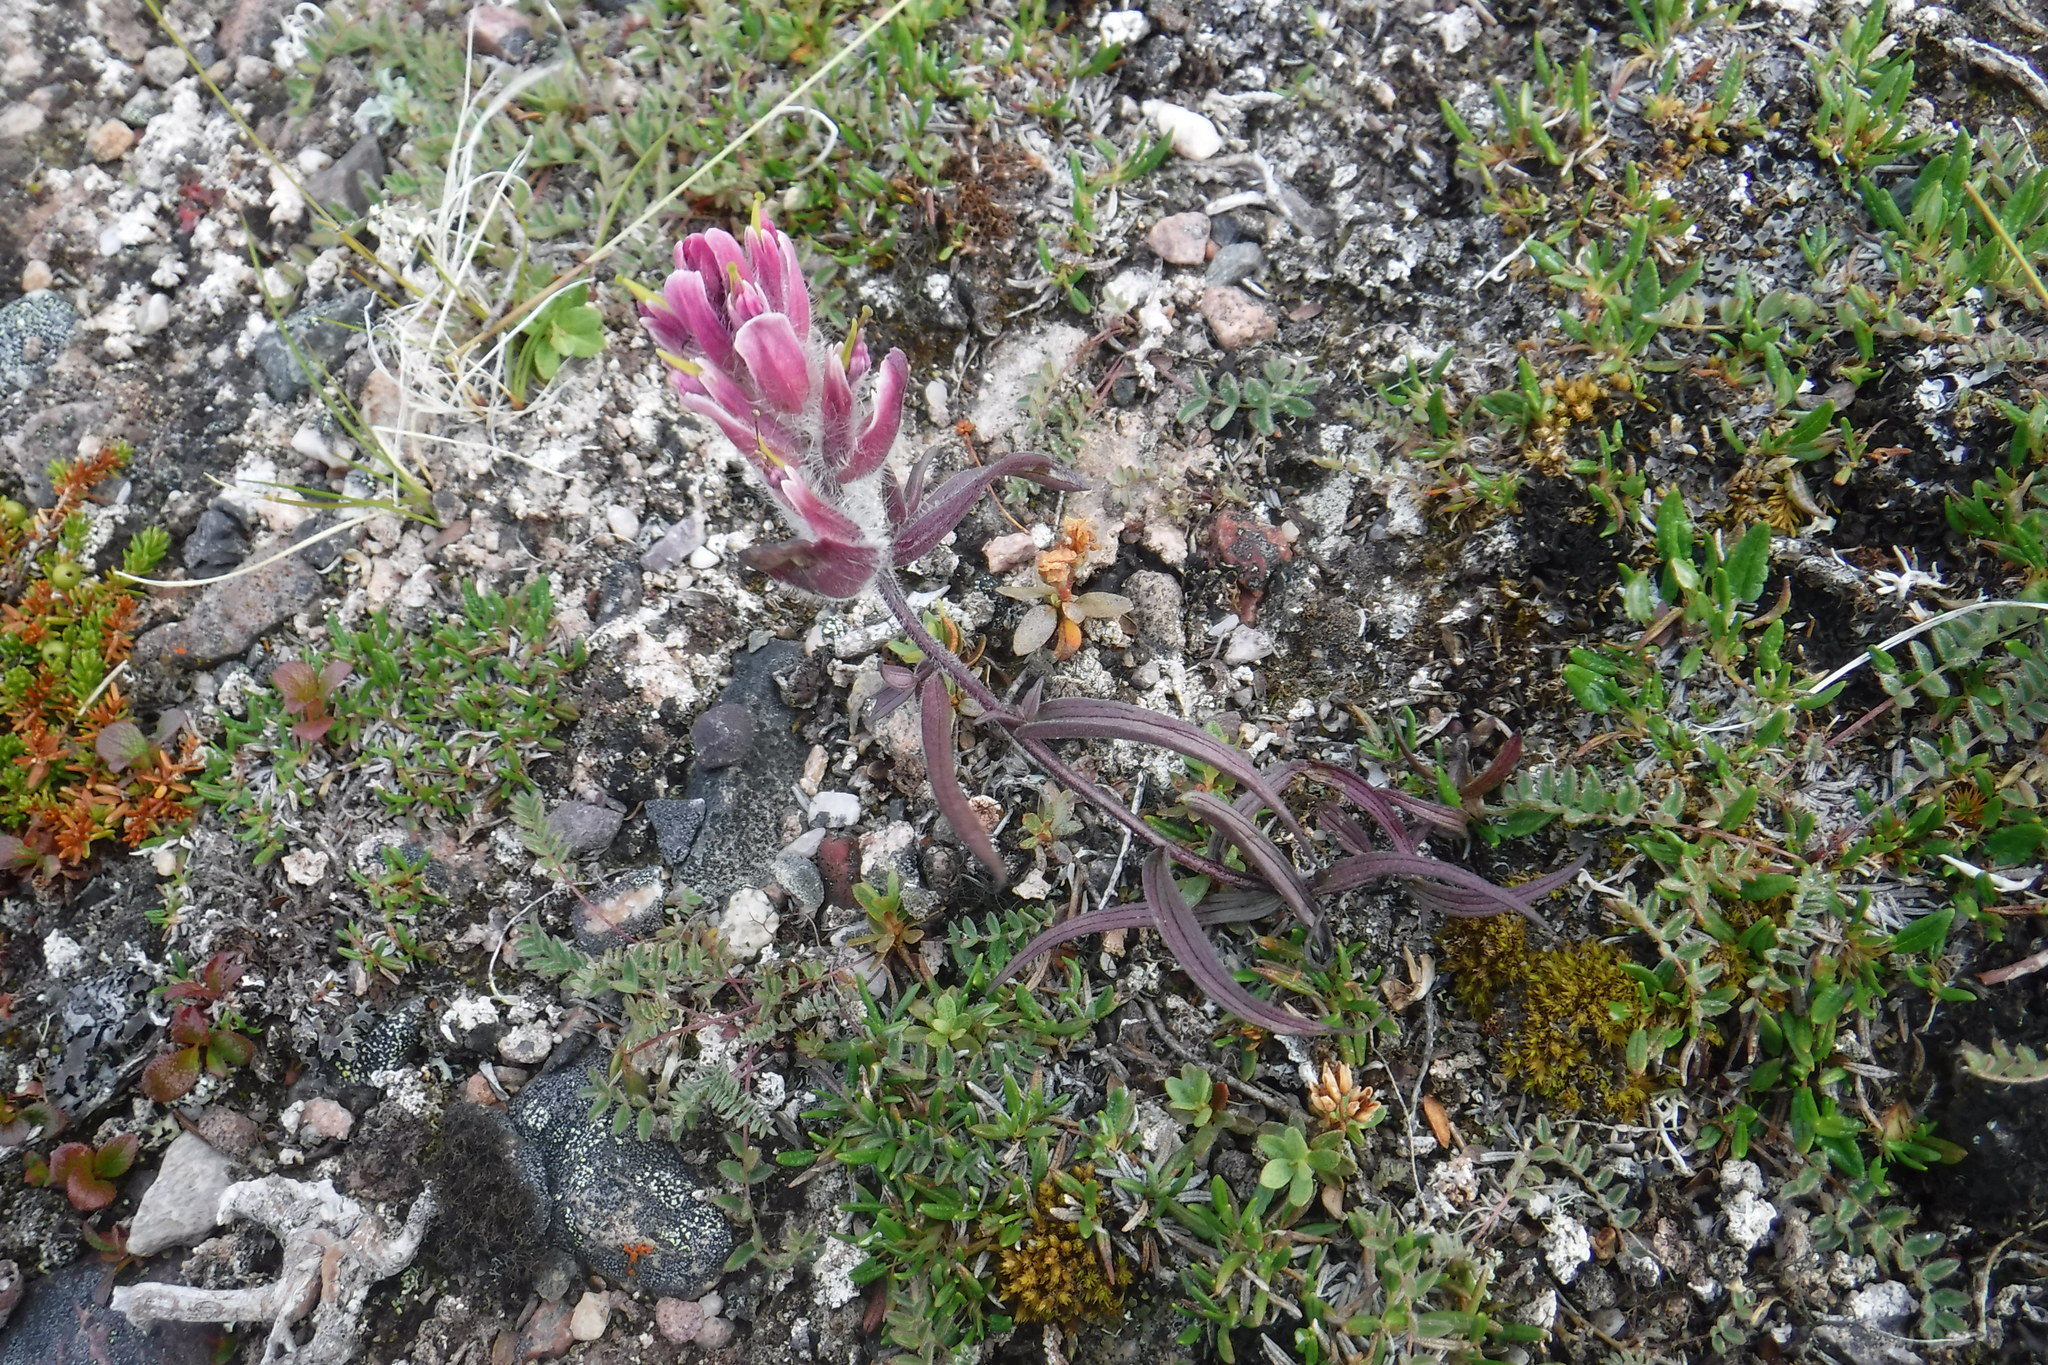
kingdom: Plantae
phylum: Tracheophyta
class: Magnoliopsida
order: Lamiales
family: Orobanchaceae
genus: Castilleja
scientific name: Castilleja elegans
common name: Elegant paintbrush
